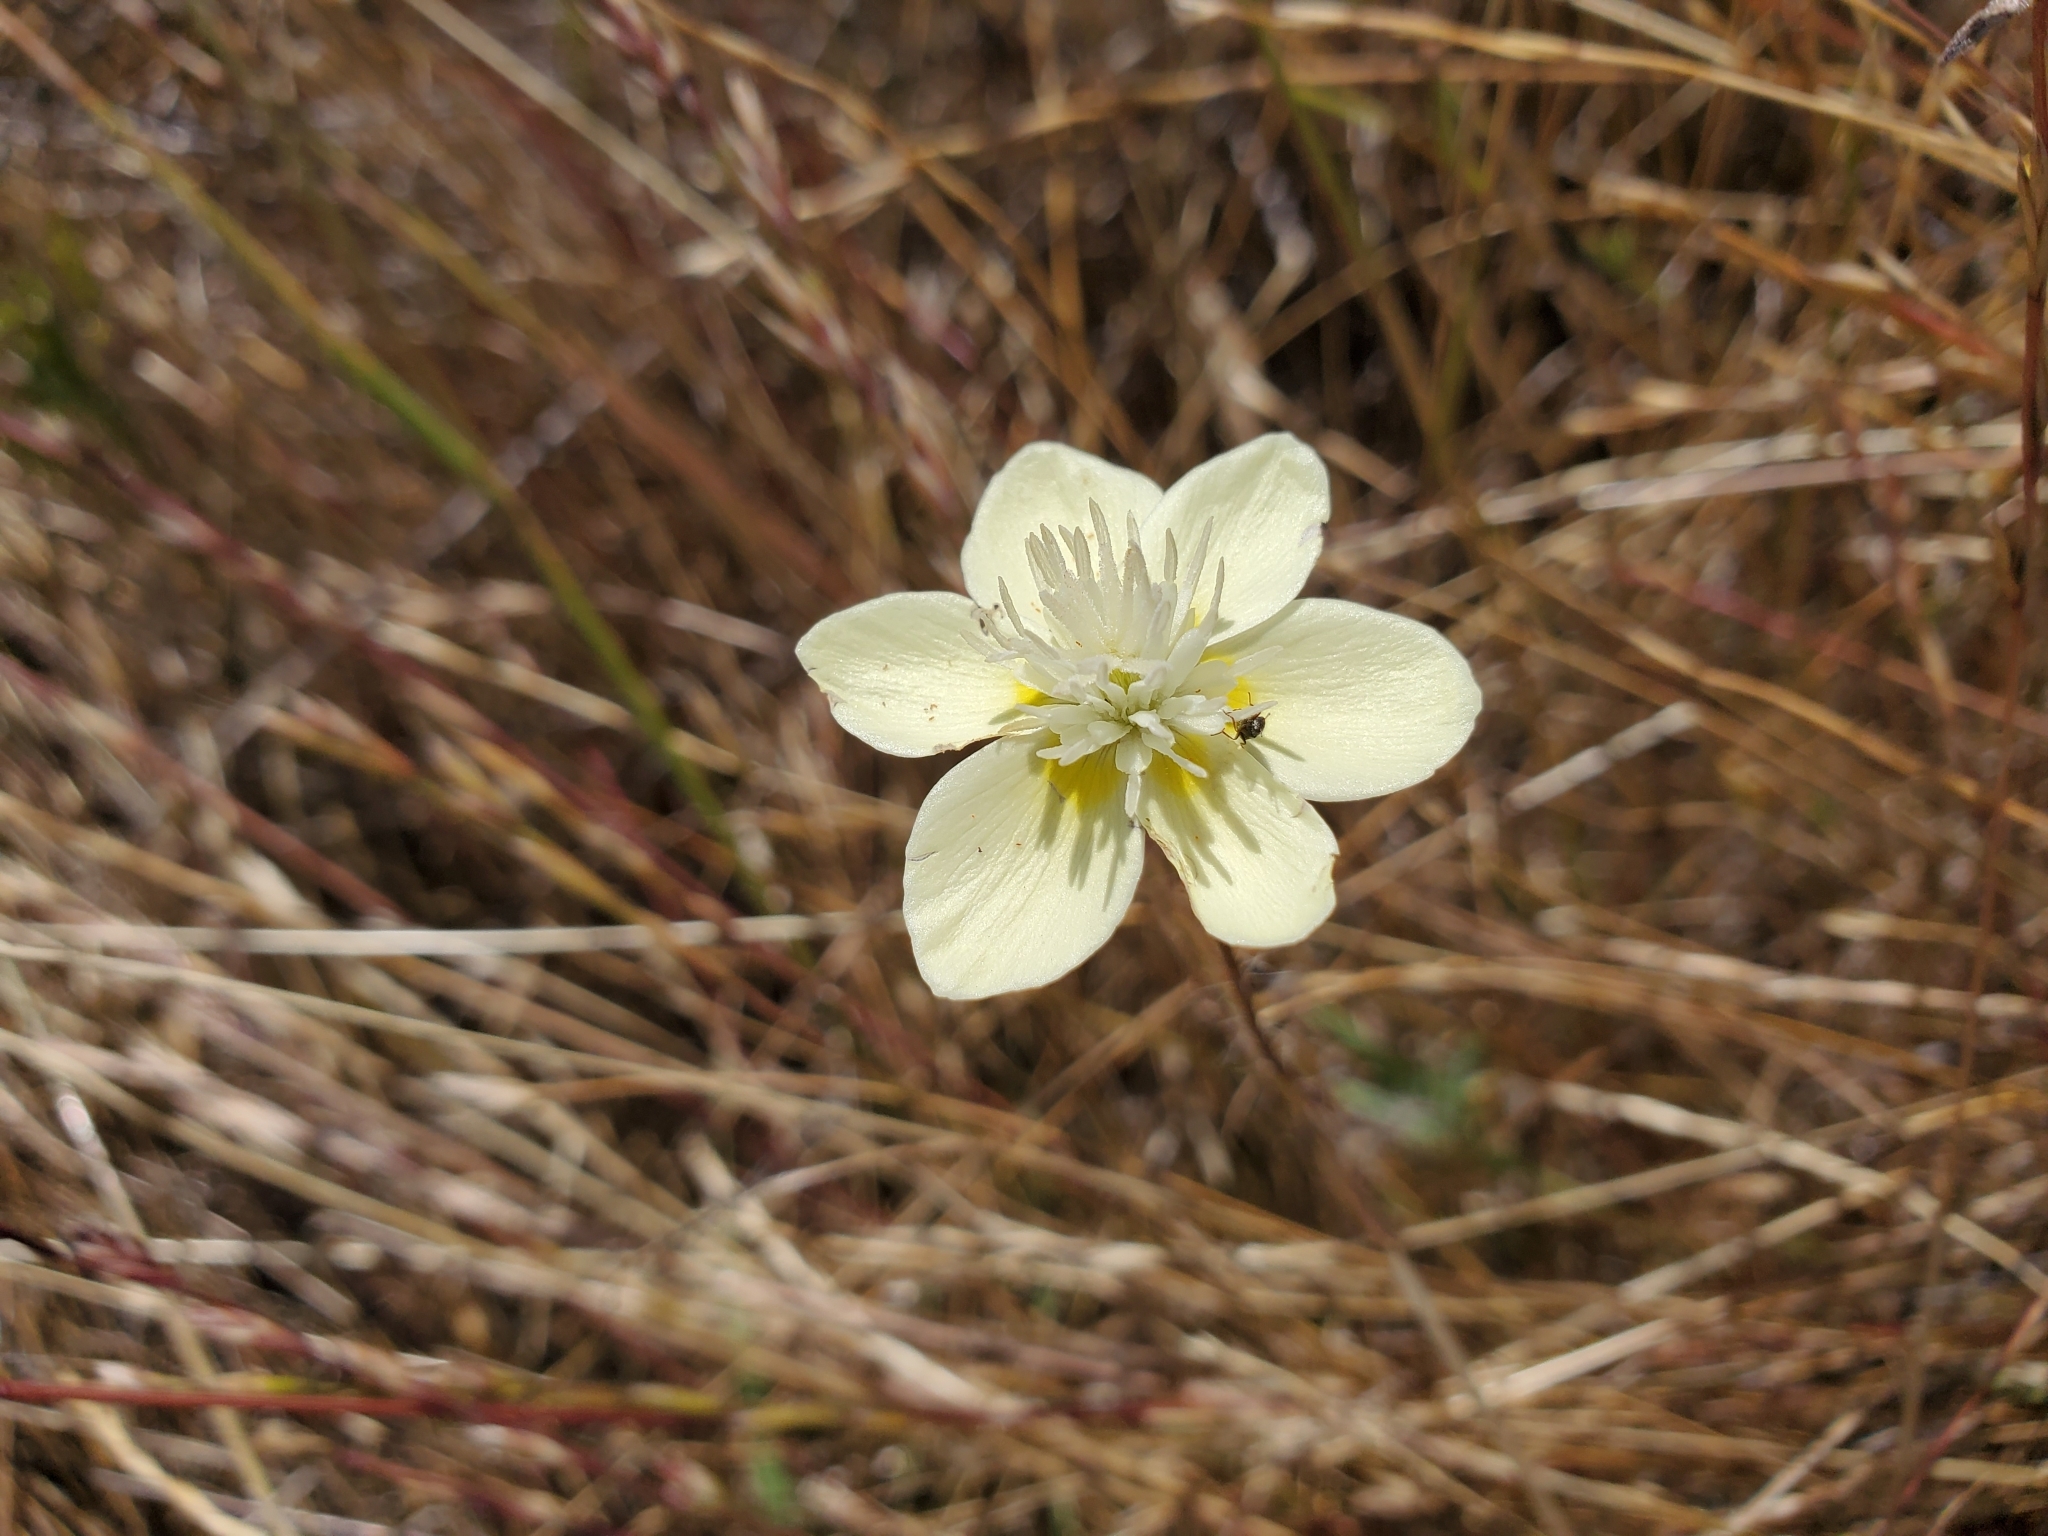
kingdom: Plantae
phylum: Tracheophyta
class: Magnoliopsida
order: Ranunculales
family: Papaveraceae
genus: Platystemon
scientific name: Platystemon californicus
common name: Cream-cups
